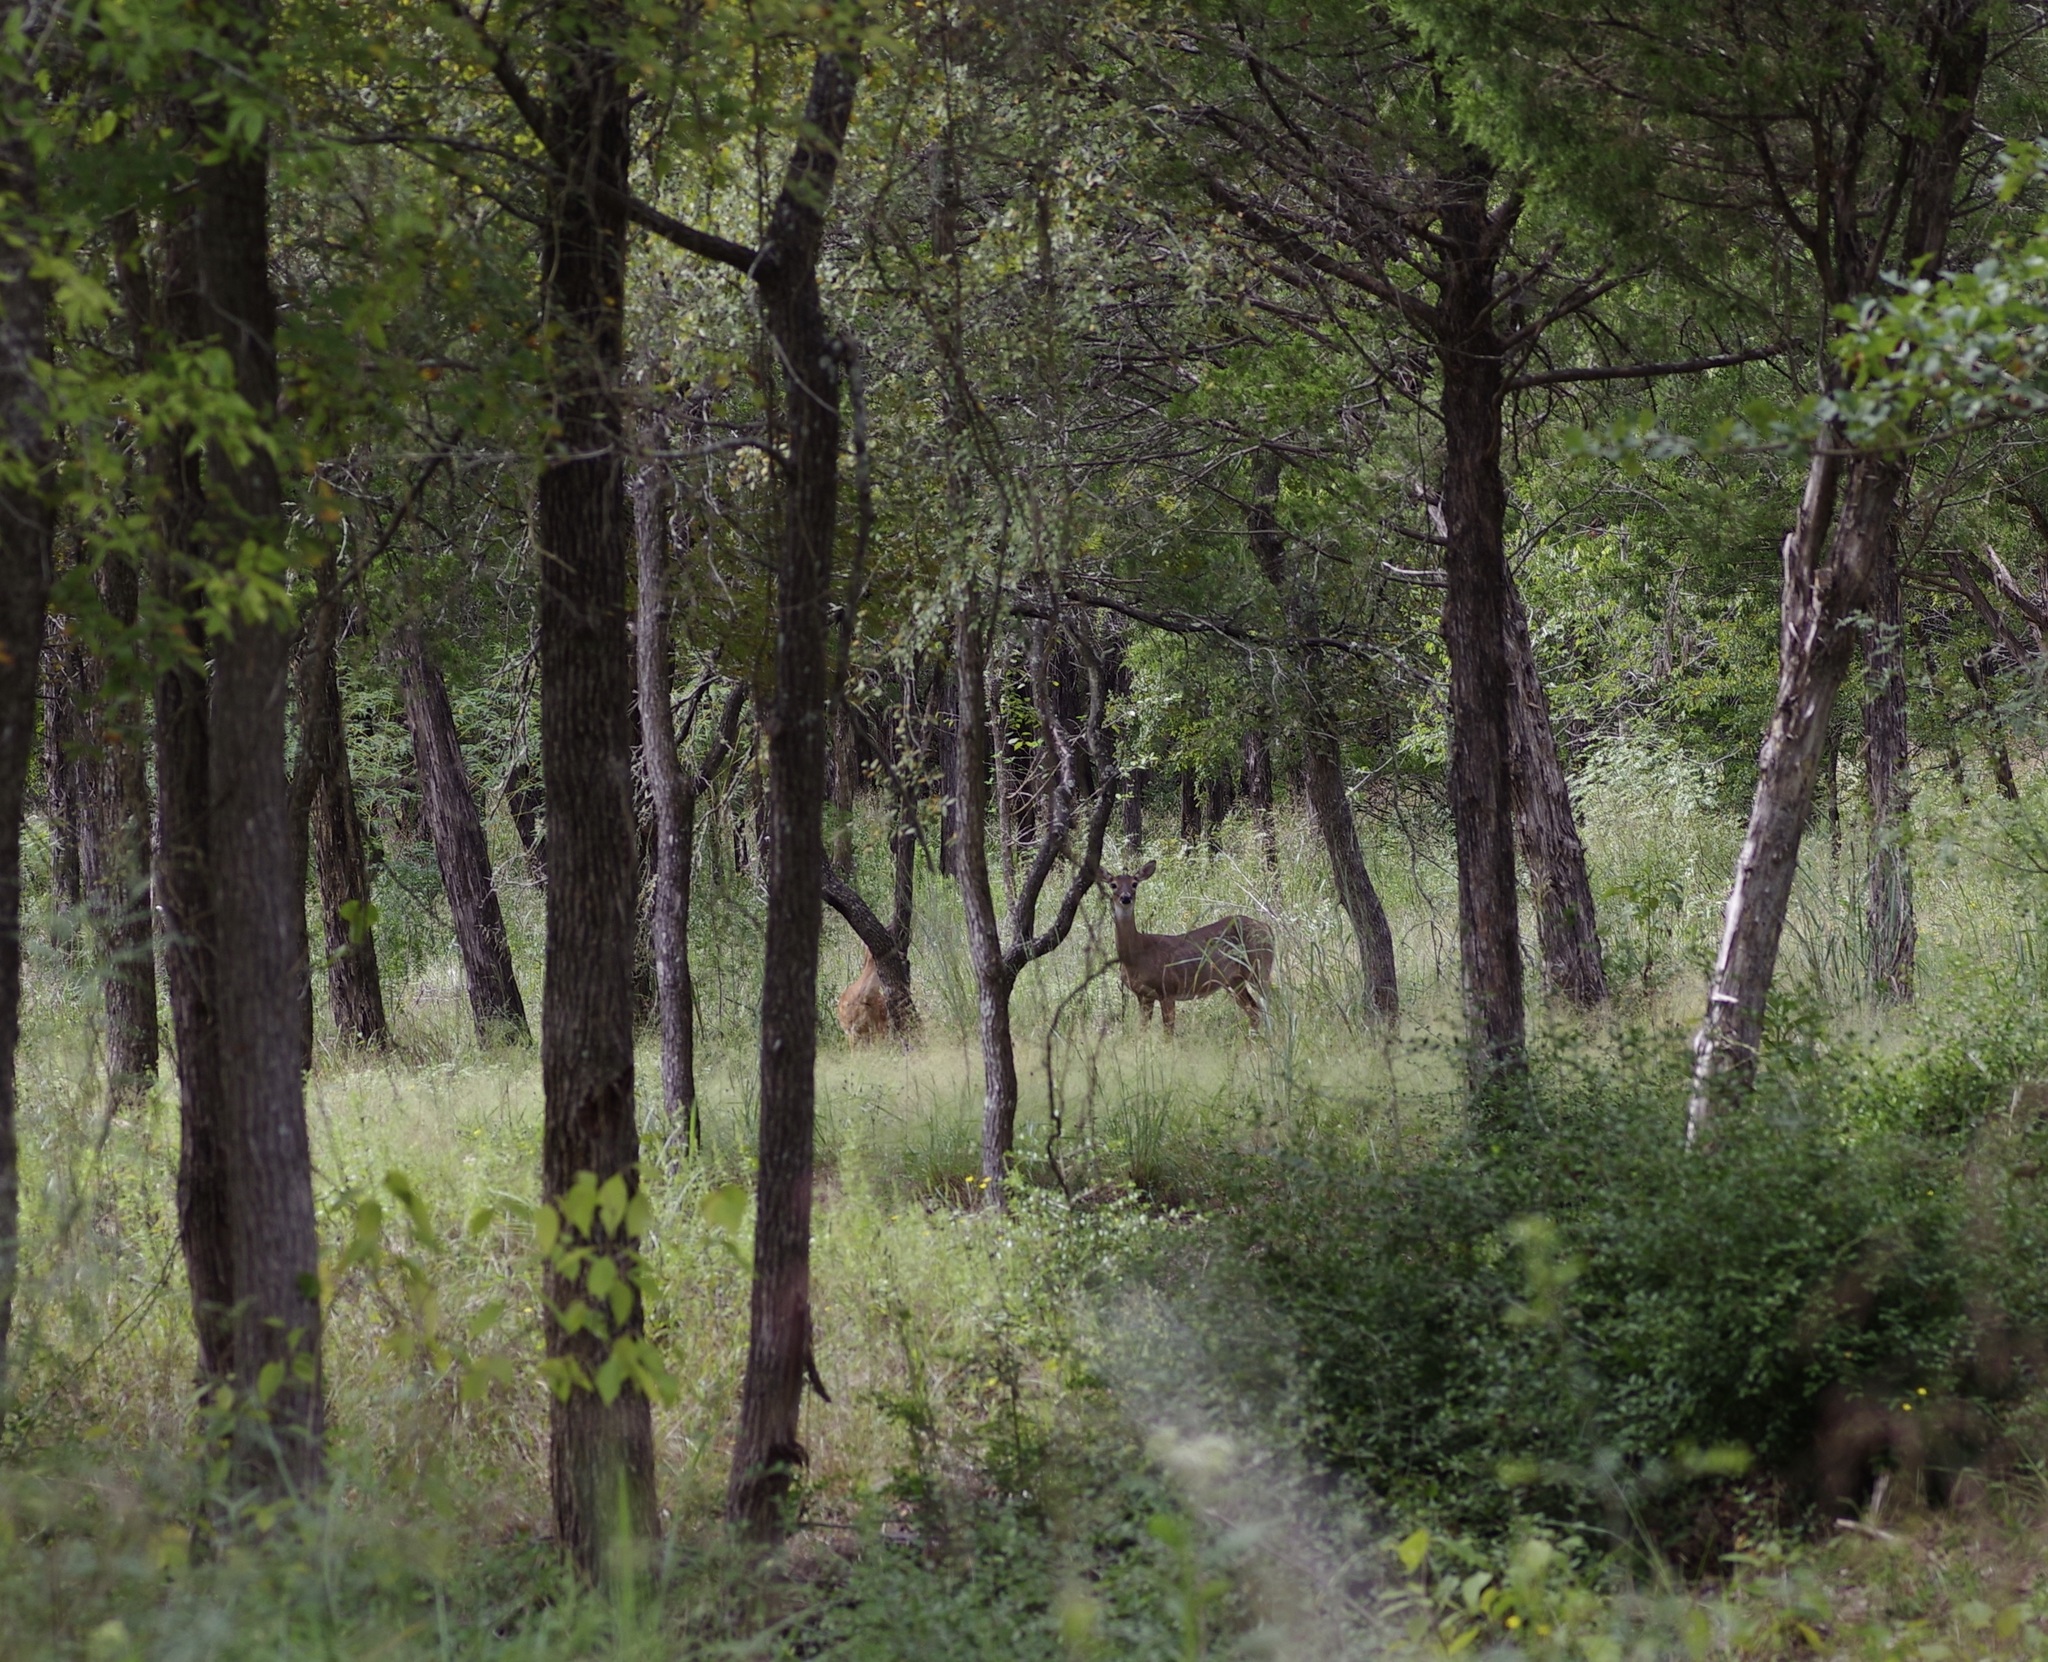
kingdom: Animalia
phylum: Chordata
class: Mammalia
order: Artiodactyla
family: Cervidae
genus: Odocoileus
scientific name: Odocoileus virginianus
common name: White-tailed deer
